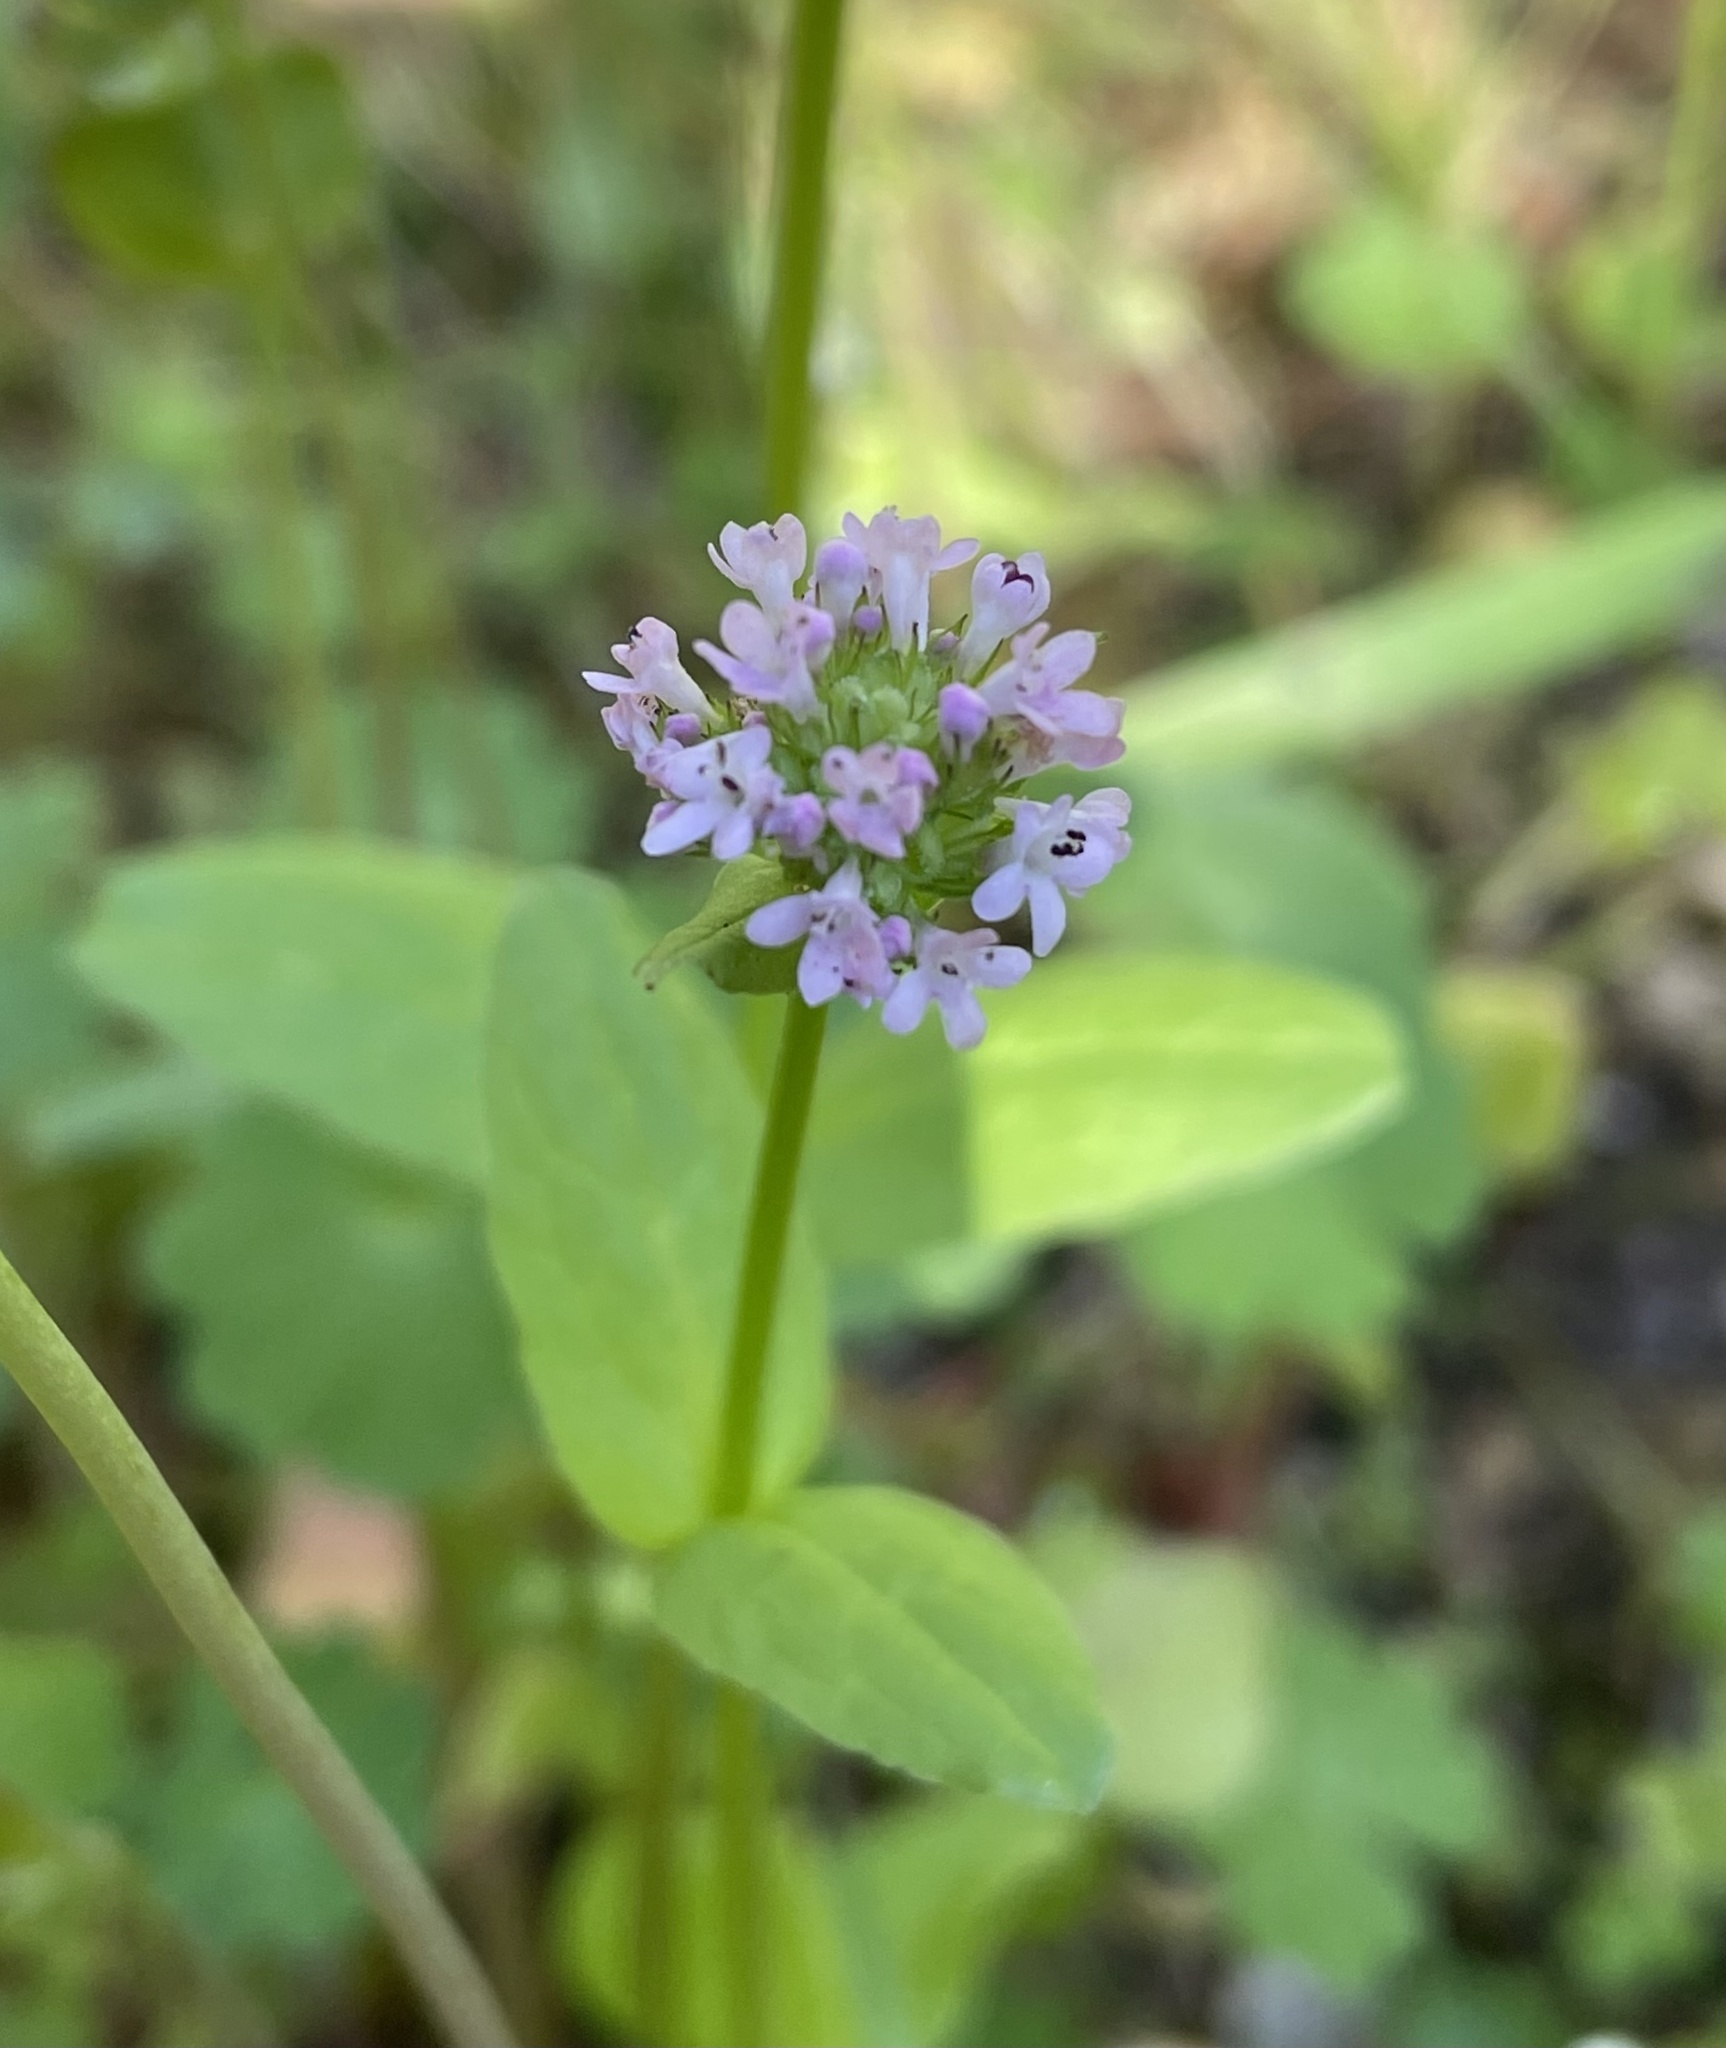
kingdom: Plantae
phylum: Tracheophyta
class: Magnoliopsida
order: Dipsacales
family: Caprifoliaceae
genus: Plectritis
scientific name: Plectritis brachystemon
